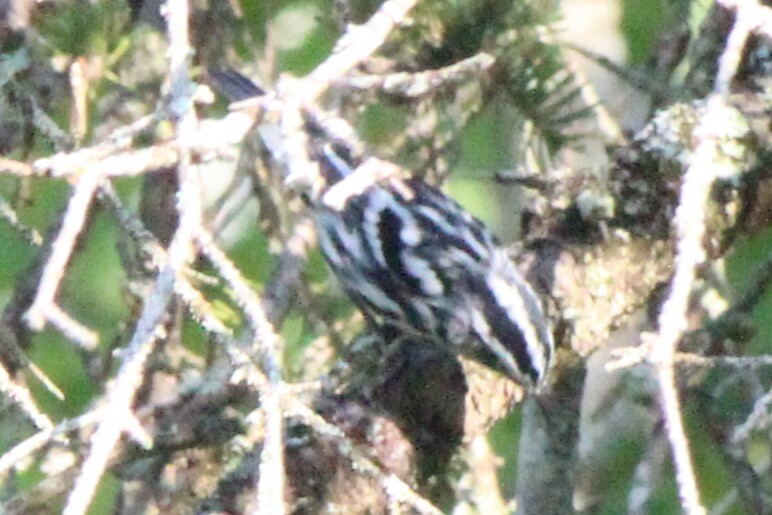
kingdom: Animalia
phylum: Chordata
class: Aves
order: Passeriformes
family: Parulidae
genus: Mniotilta
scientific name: Mniotilta varia
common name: Black-and-white warbler
